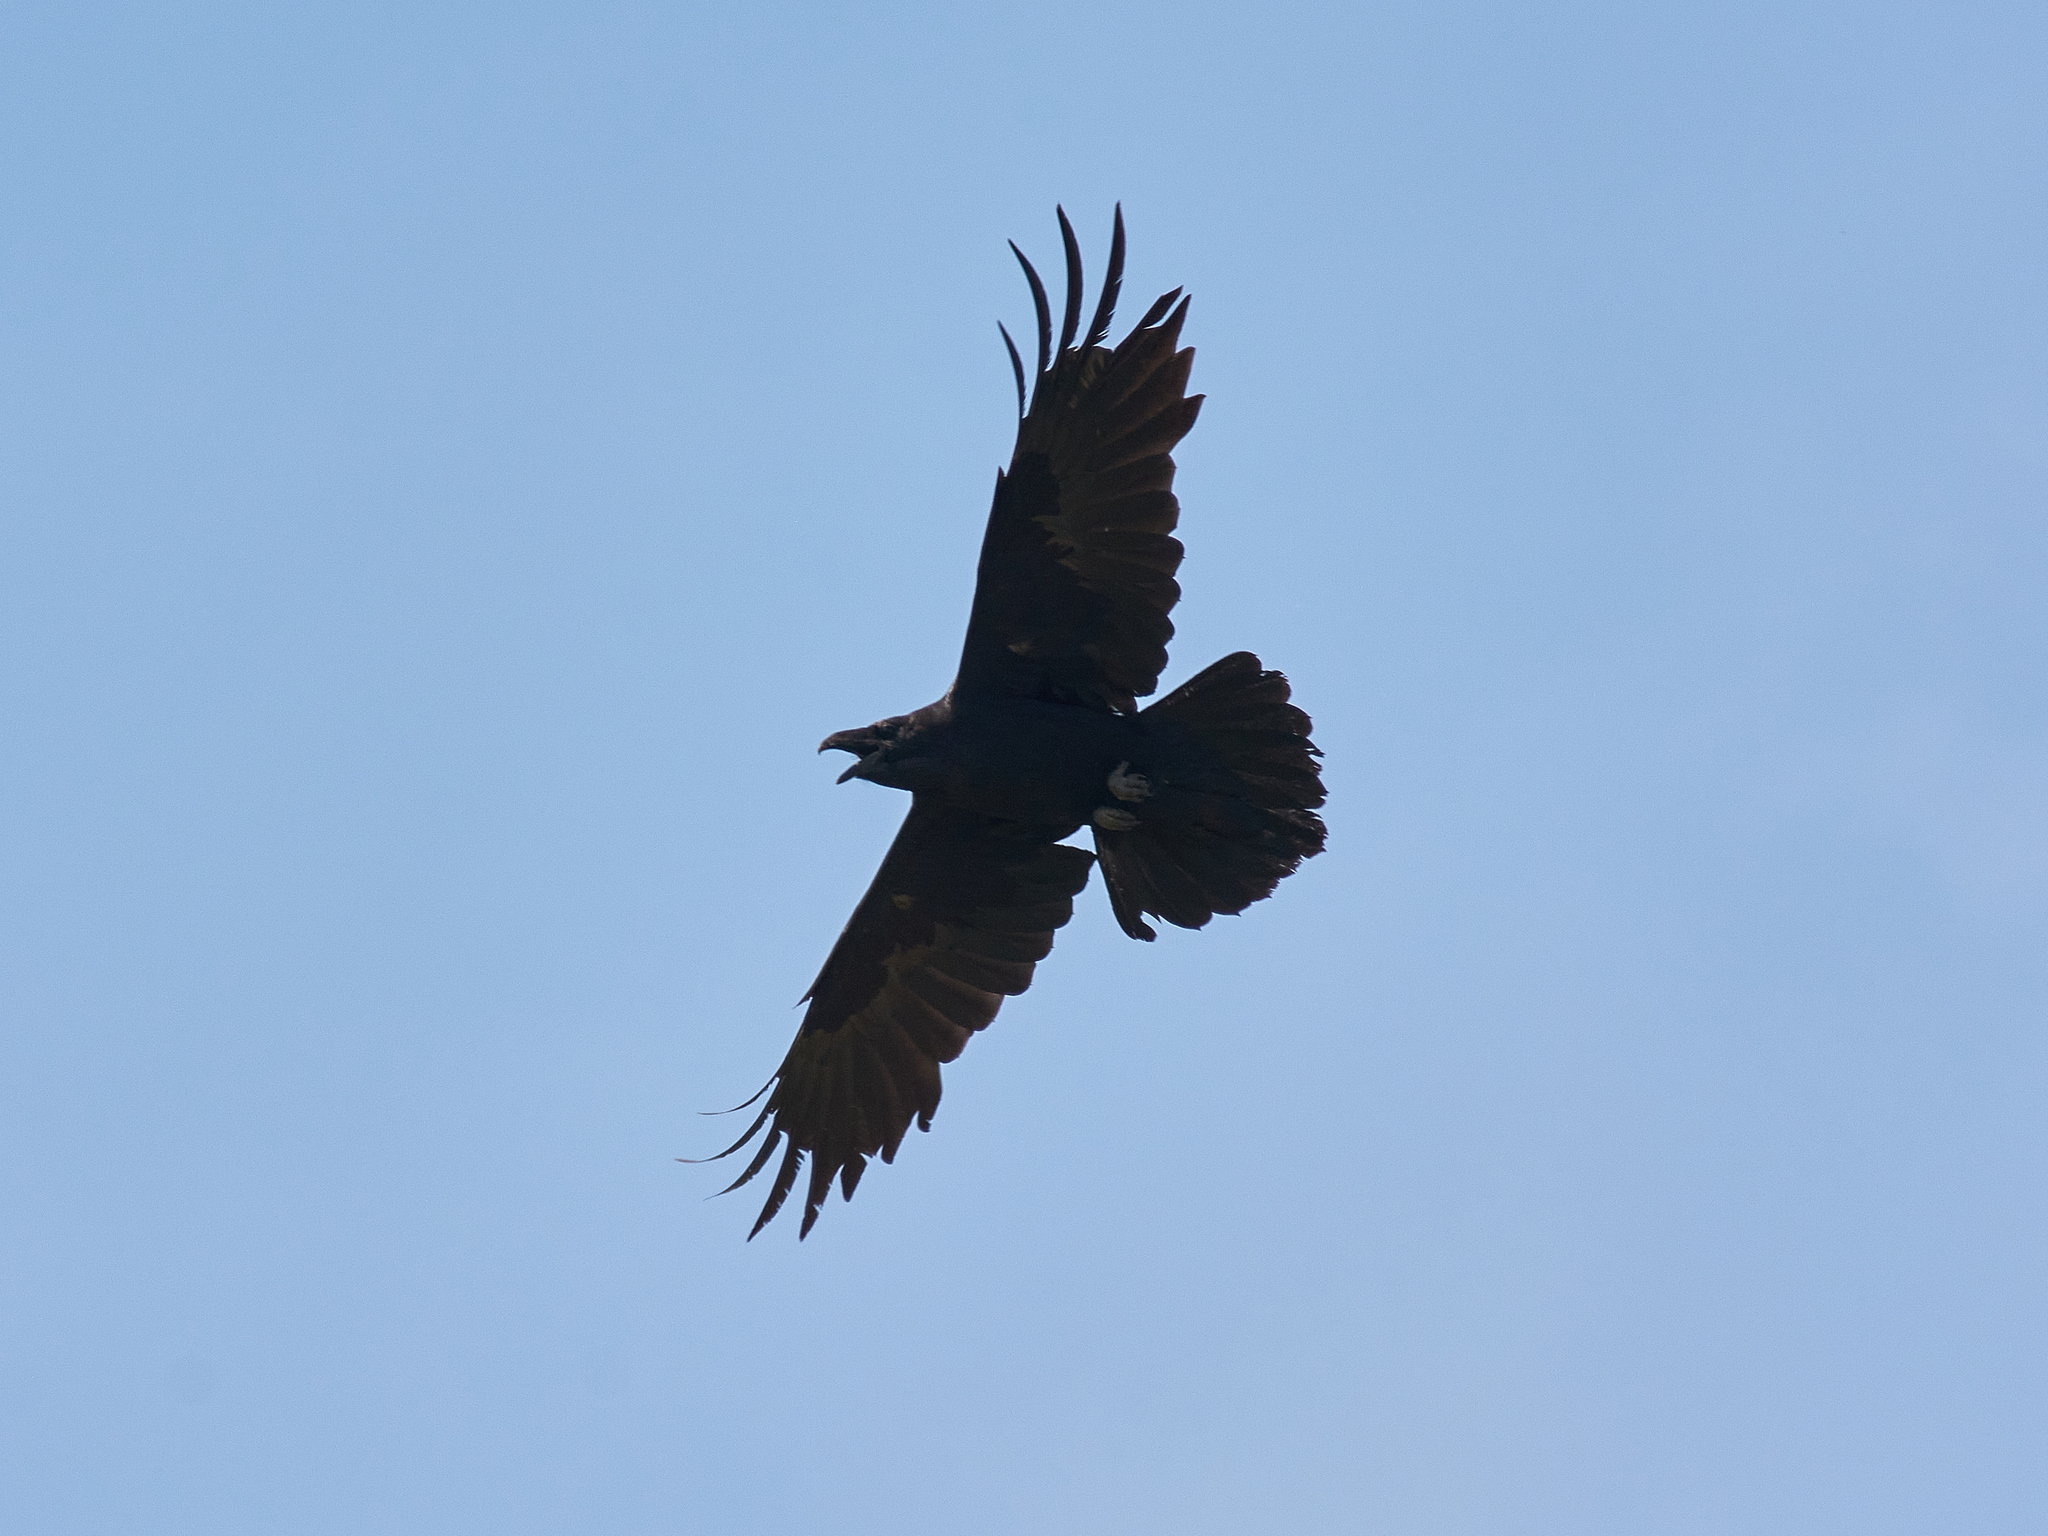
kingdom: Animalia
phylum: Chordata
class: Aves
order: Passeriformes
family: Corvidae
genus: Corvus
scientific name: Corvus corax
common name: Common raven
